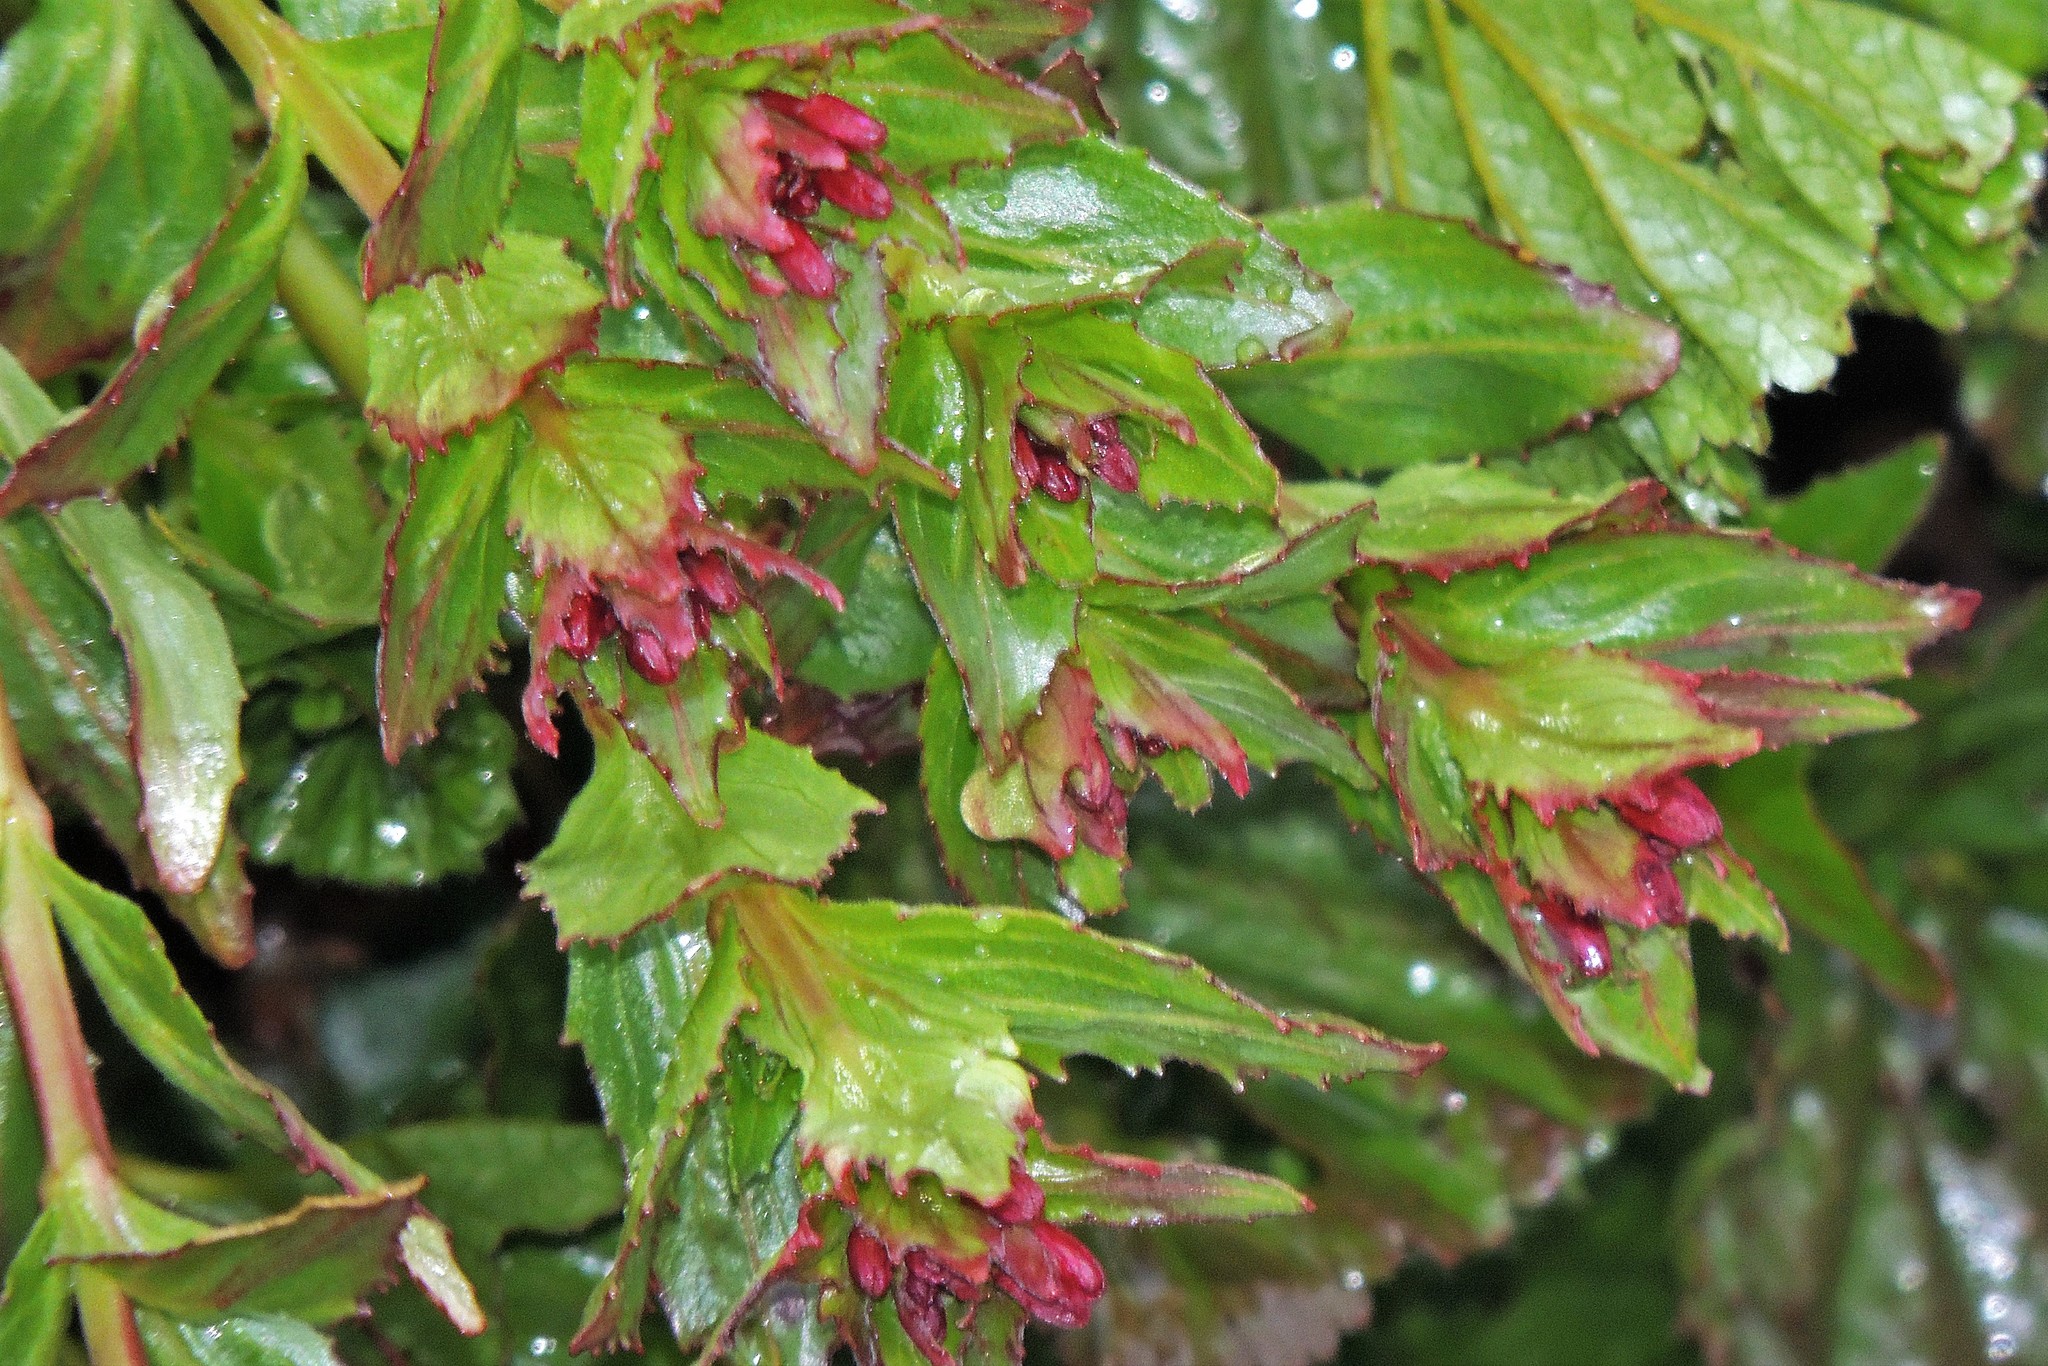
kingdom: Plantae
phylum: Tracheophyta
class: Magnoliopsida
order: Myrtales
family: Onagraceae
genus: Epilobium
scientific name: Epilobium australe
